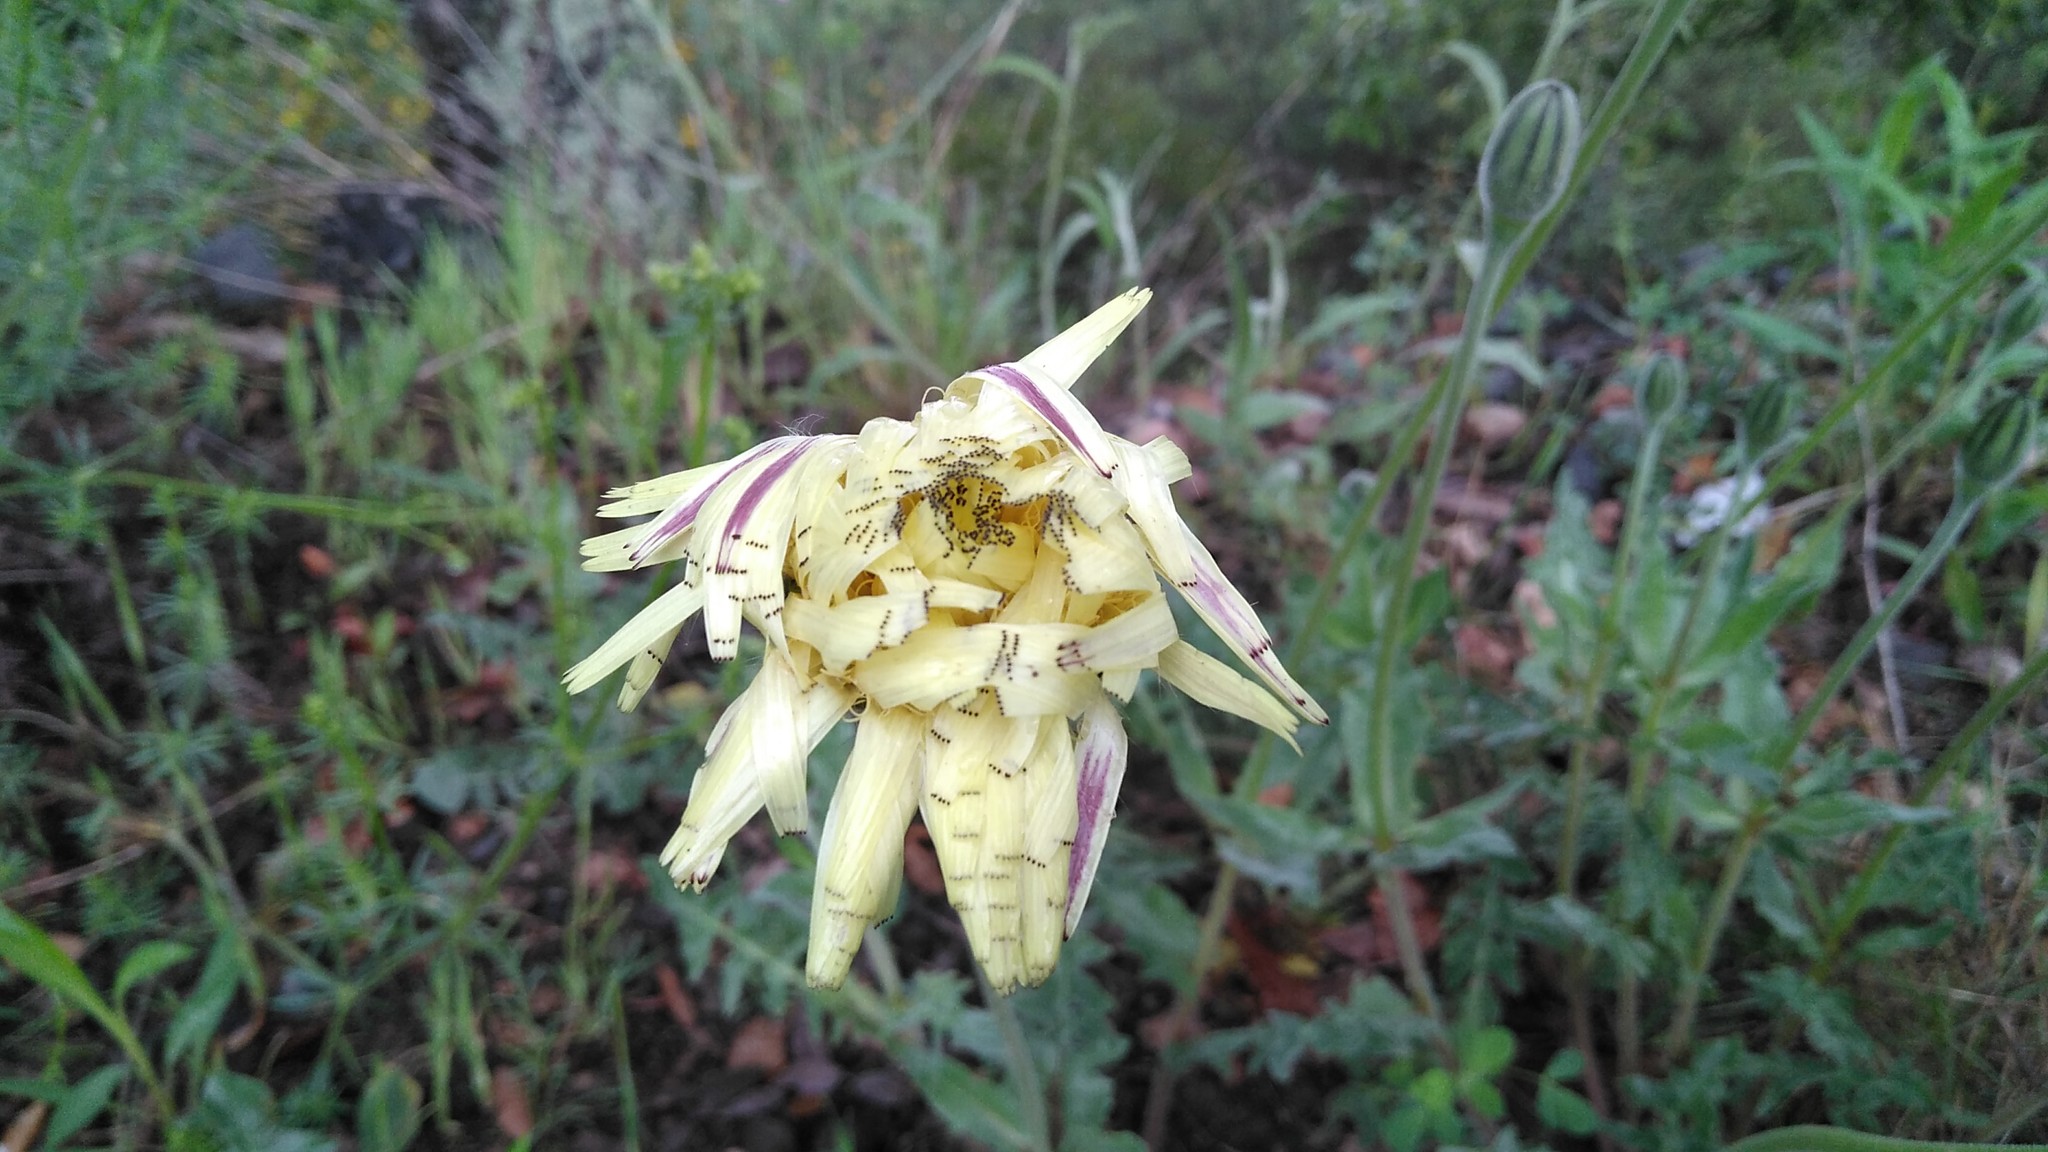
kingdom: Plantae
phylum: Tracheophyta
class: Magnoliopsida
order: Asterales
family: Asteraceae
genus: Urospermum
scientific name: Urospermum dalechampii
